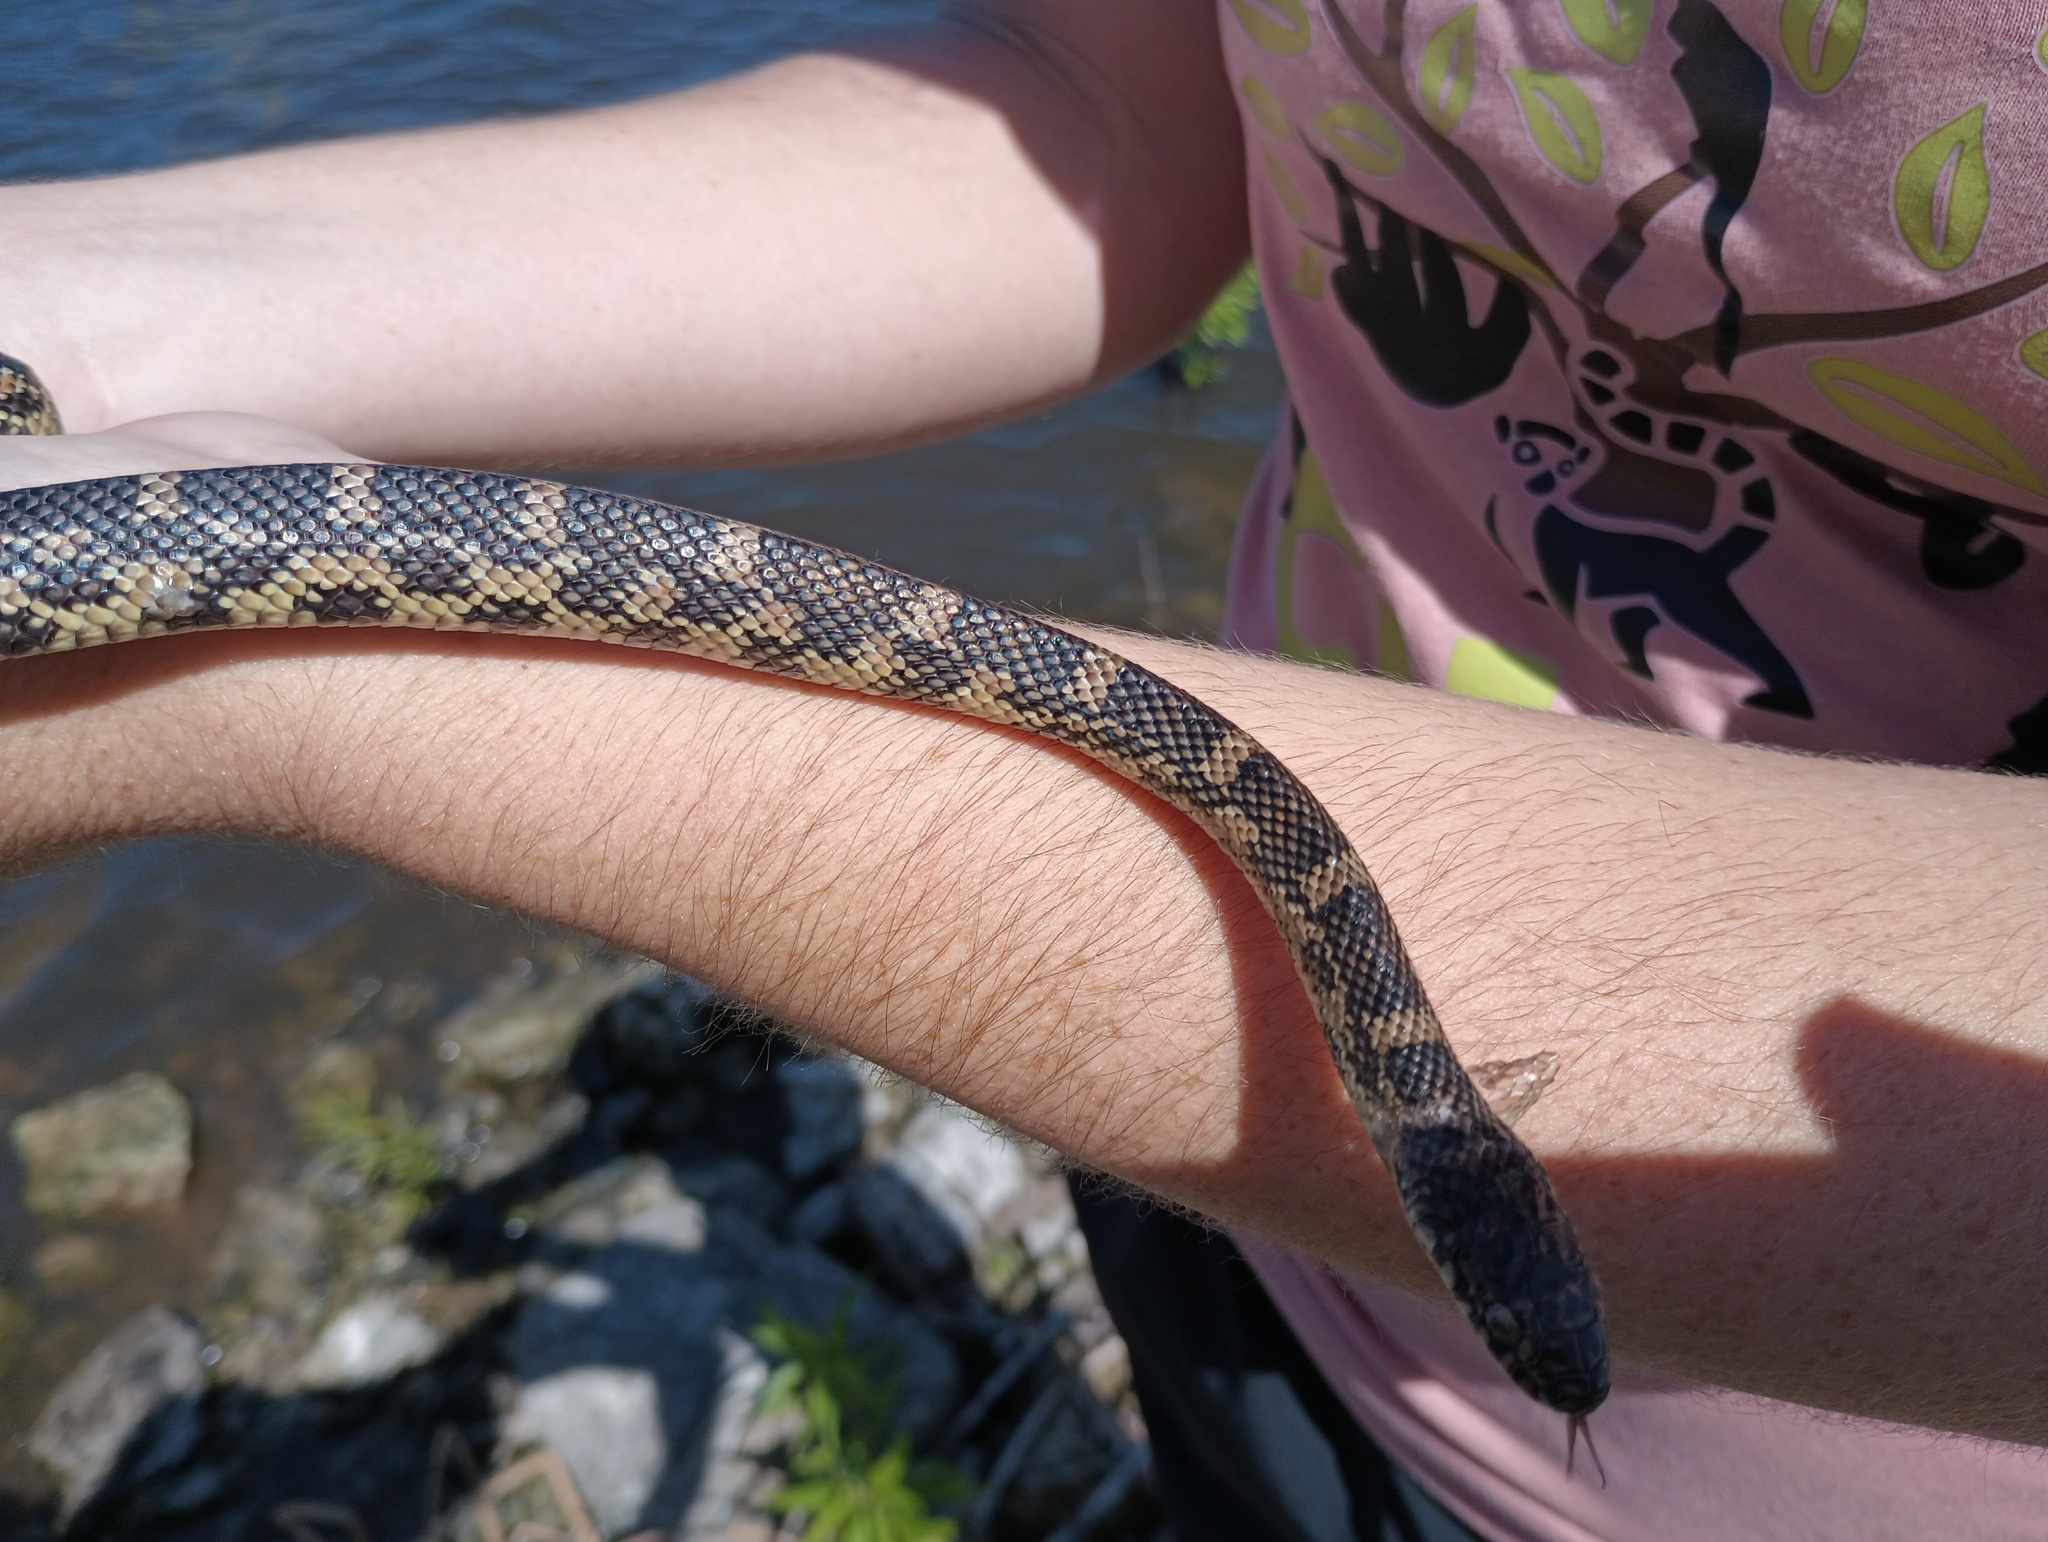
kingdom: Animalia
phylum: Chordata
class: Squamata
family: Colubridae
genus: Lampropeltis
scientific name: Lampropeltis getula
